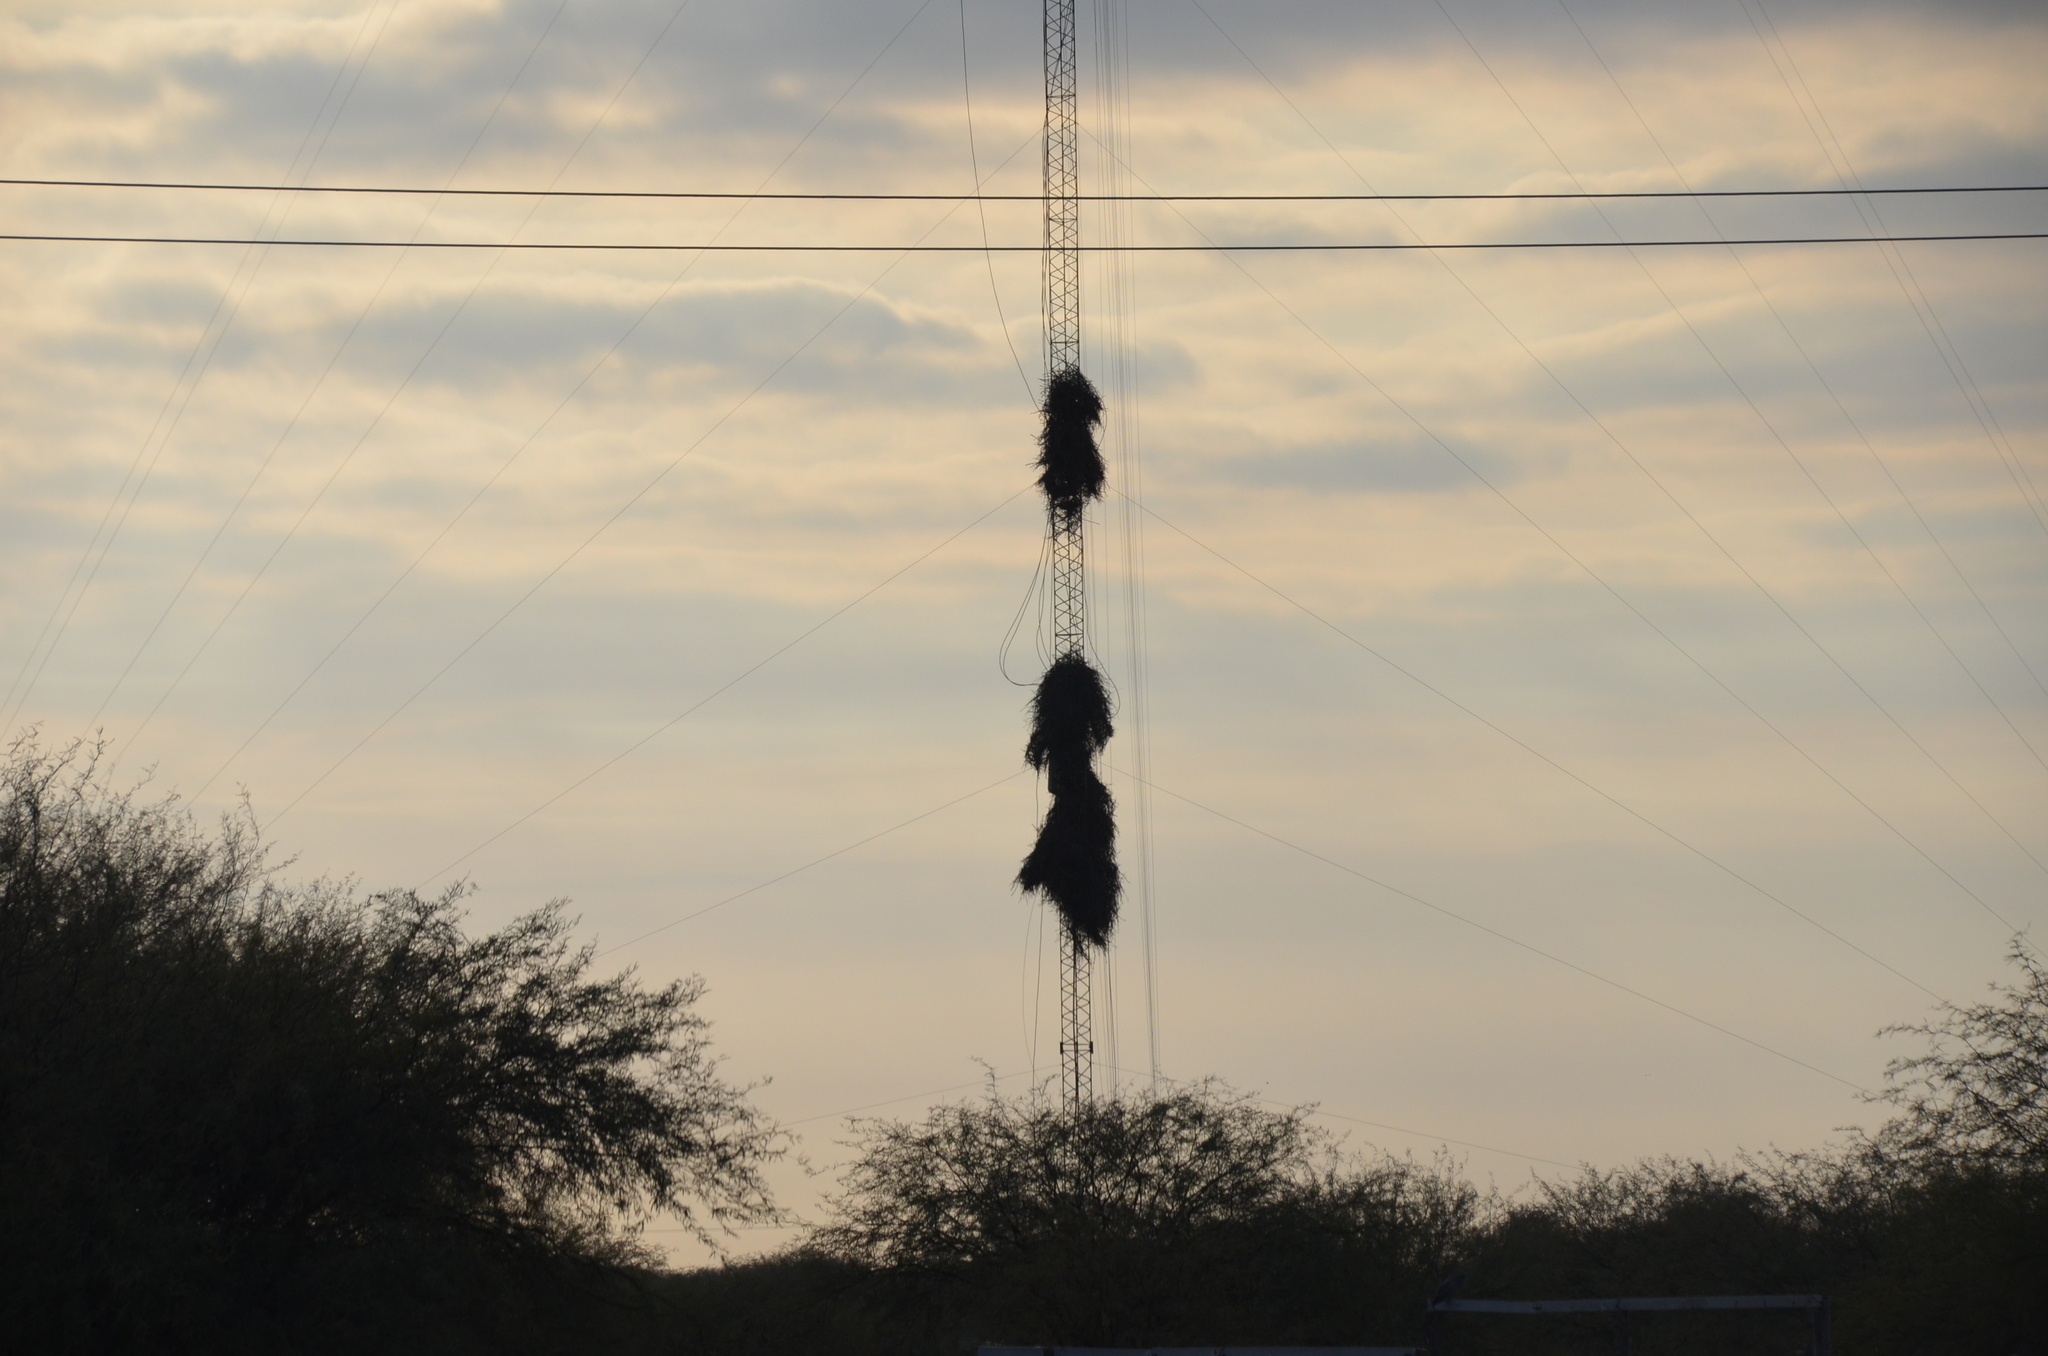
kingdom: Animalia
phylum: Chordata
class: Aves
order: Psittaciformes
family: Psittacidae
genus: Myiopsitta
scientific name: Myiopsitta monachus
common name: Monk parakeet
